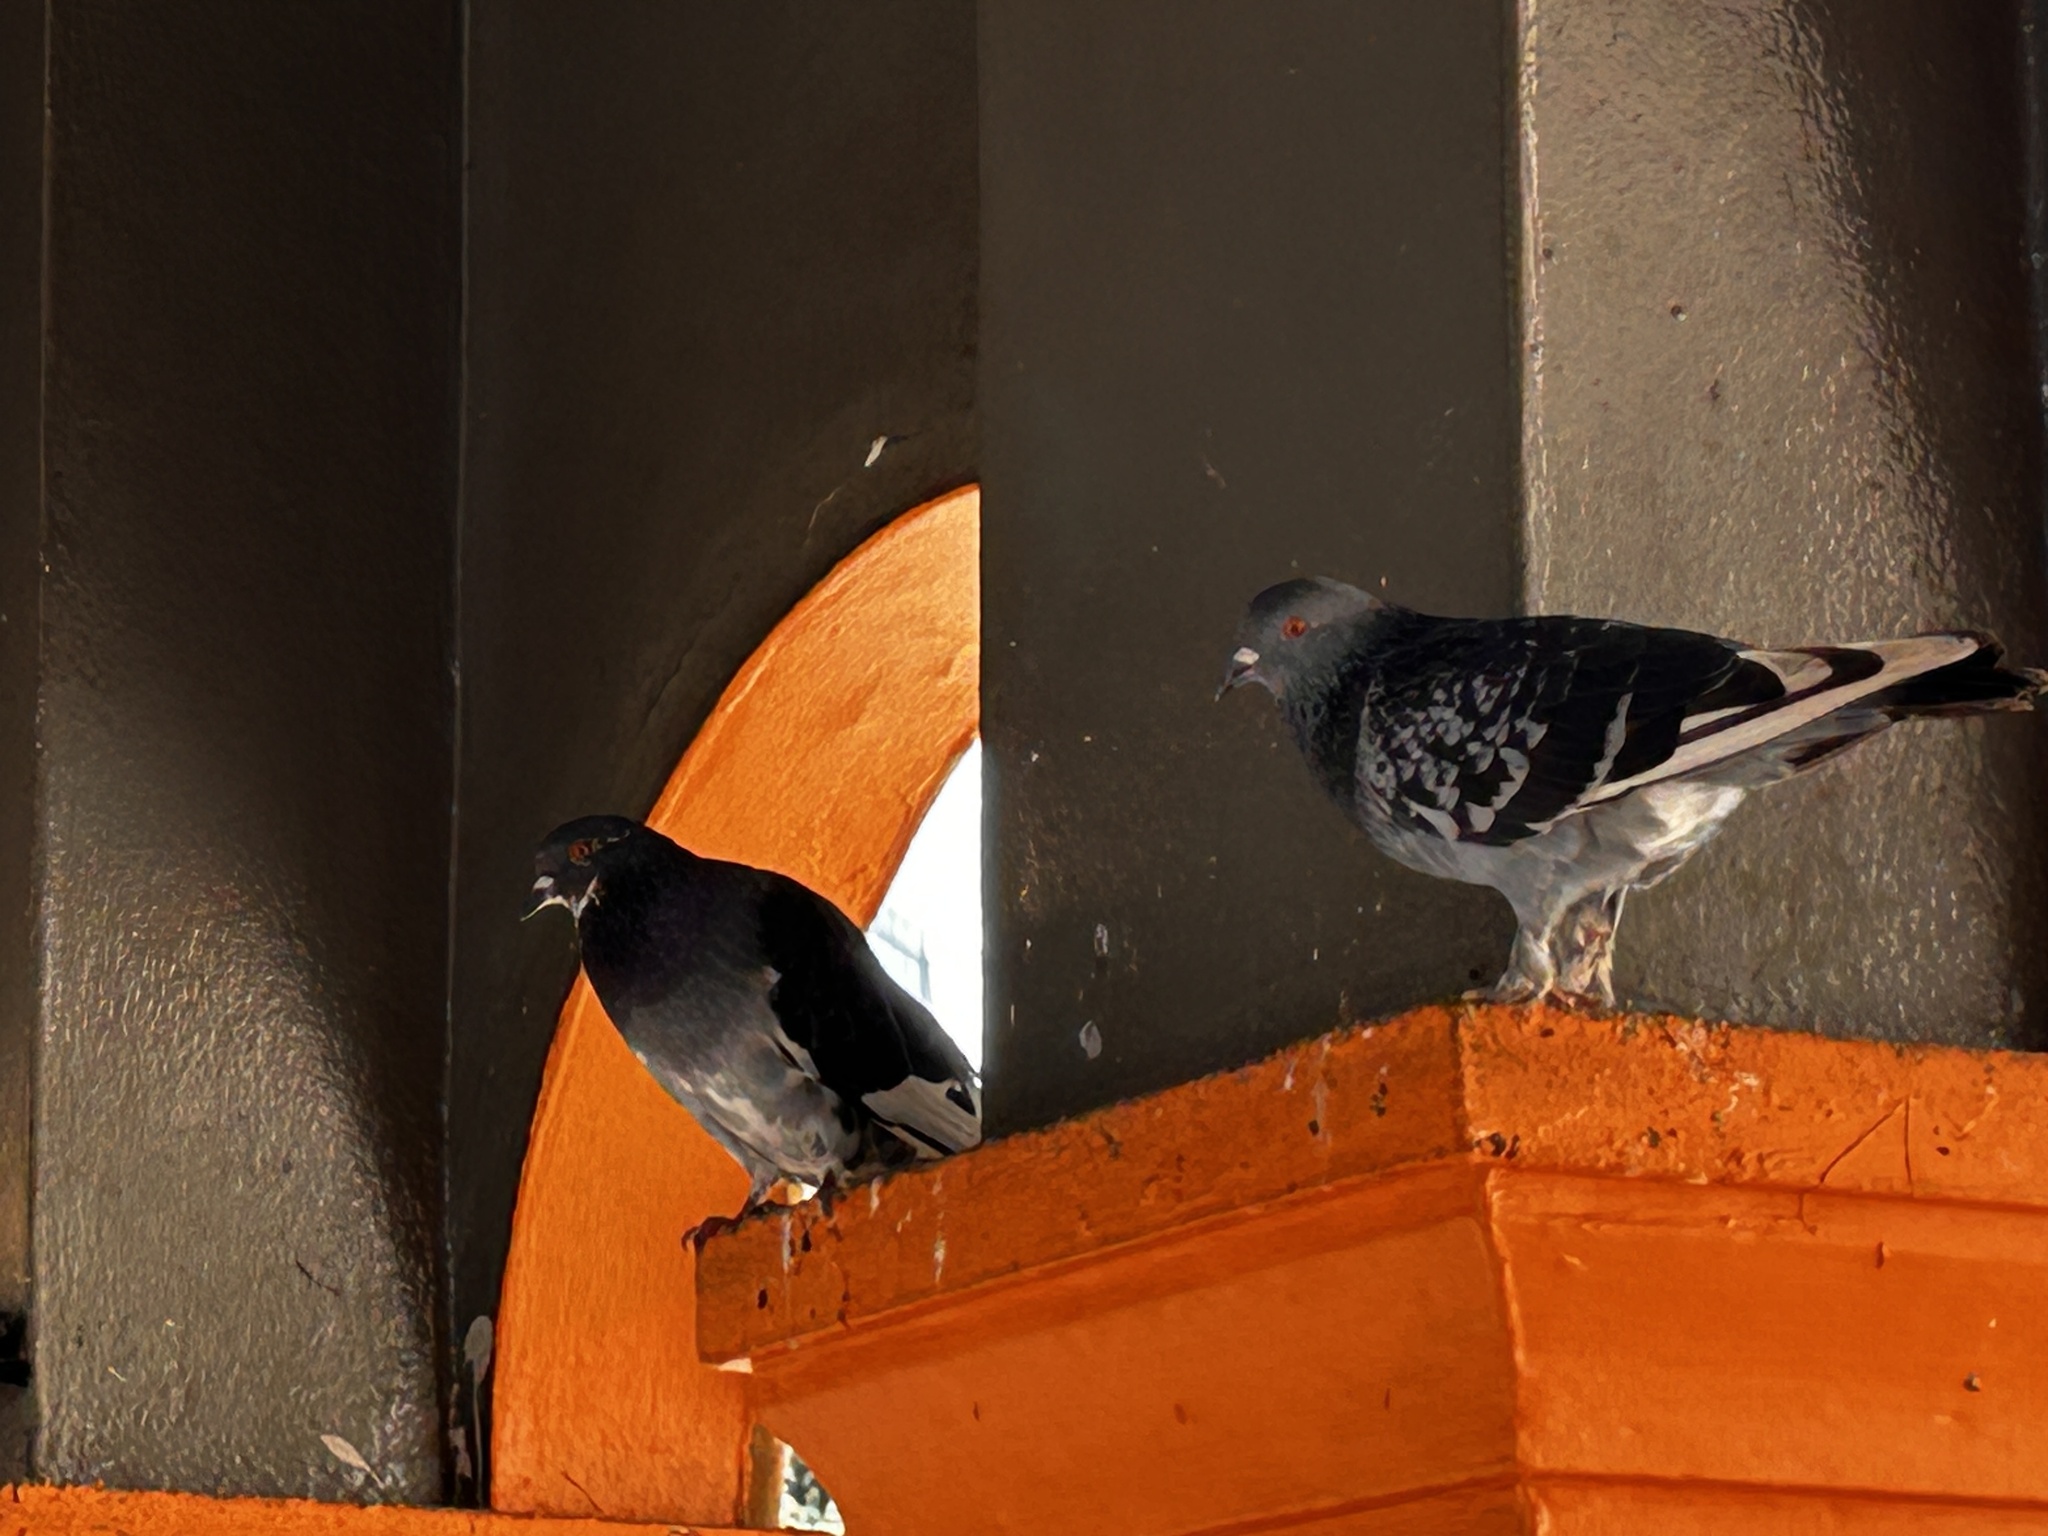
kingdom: Animalia
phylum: Chordata
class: Aves
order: Columbiformes
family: Columbidae
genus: Columba
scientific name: Columba livia
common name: Rock pigeon
